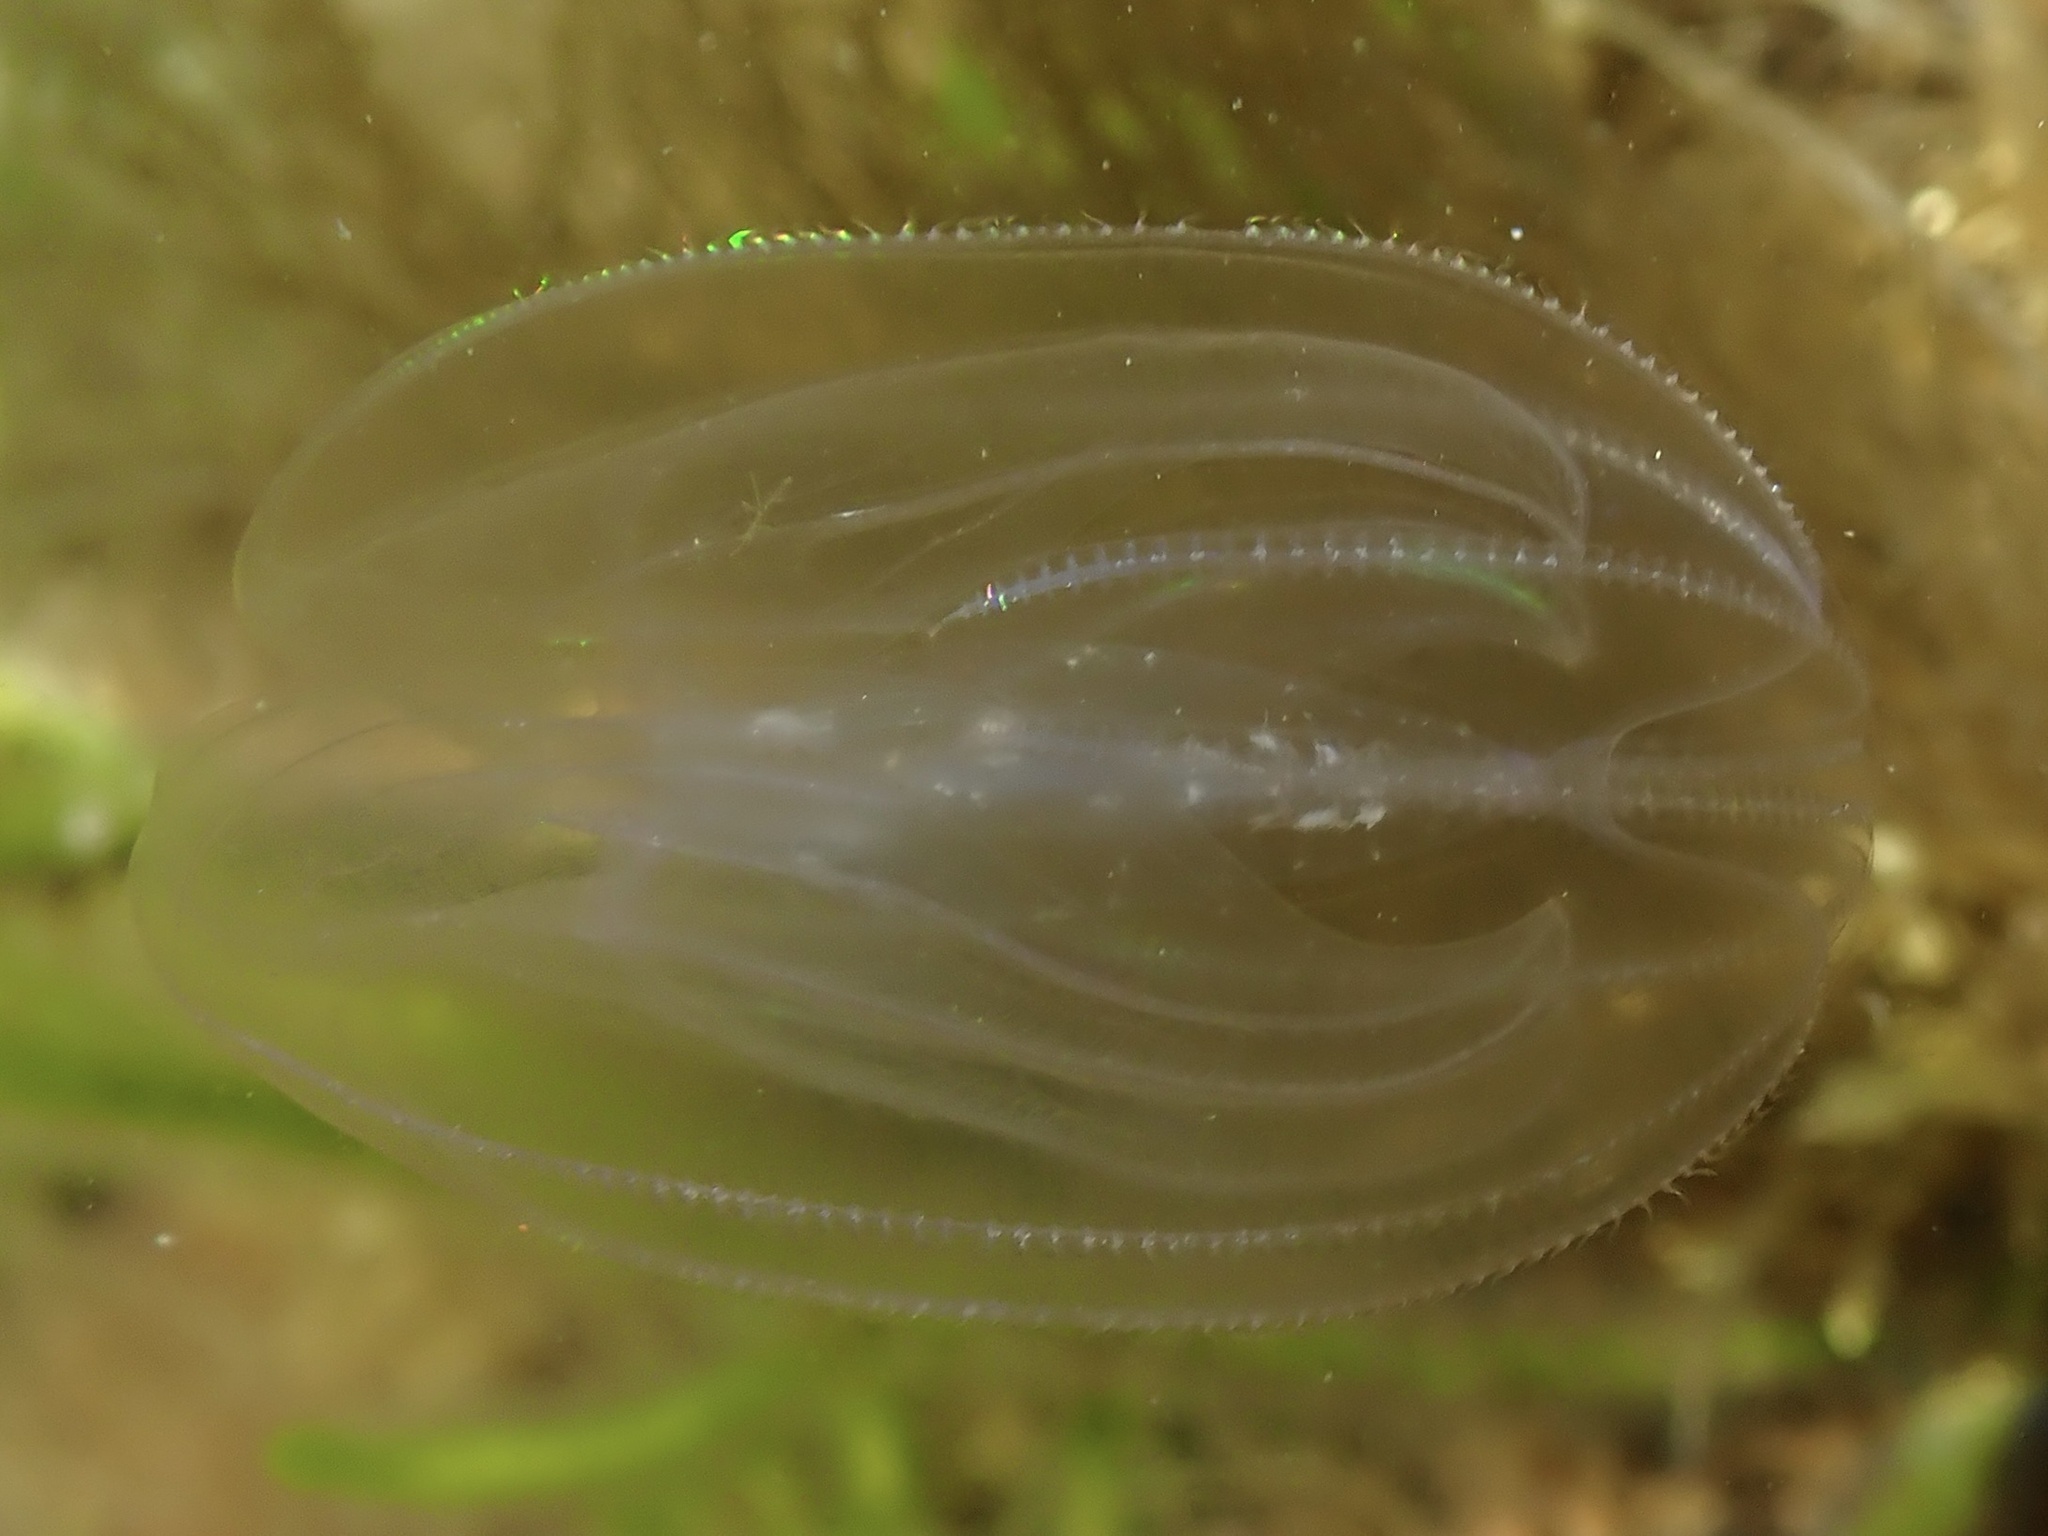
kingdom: Animalia
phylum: Ctenophora
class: Tentaculata
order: Lobata
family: Bolinopsidae
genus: Mnemiopsis
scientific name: Mnemiopsis leidyi
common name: American comb jelly
